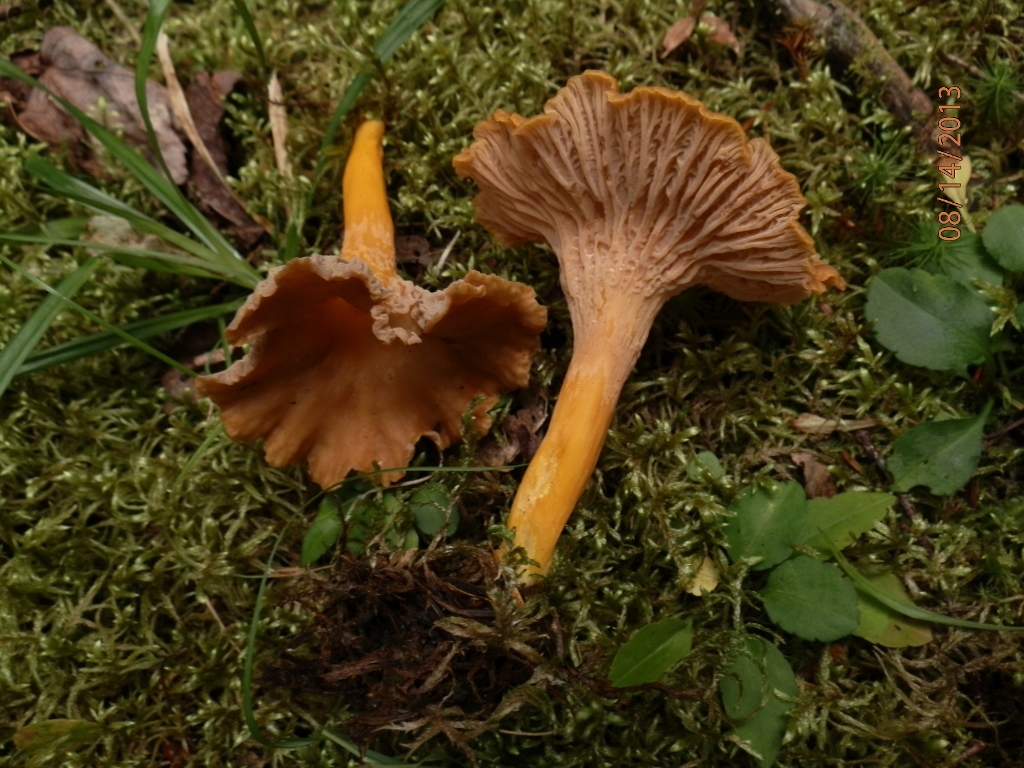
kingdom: Fungi
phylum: Basidiomycota
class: Agaricomycetes
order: Cantharellales
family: Hydnaceae
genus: Craterellus
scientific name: Craterellus ignicolor
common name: Flame chanterelle
